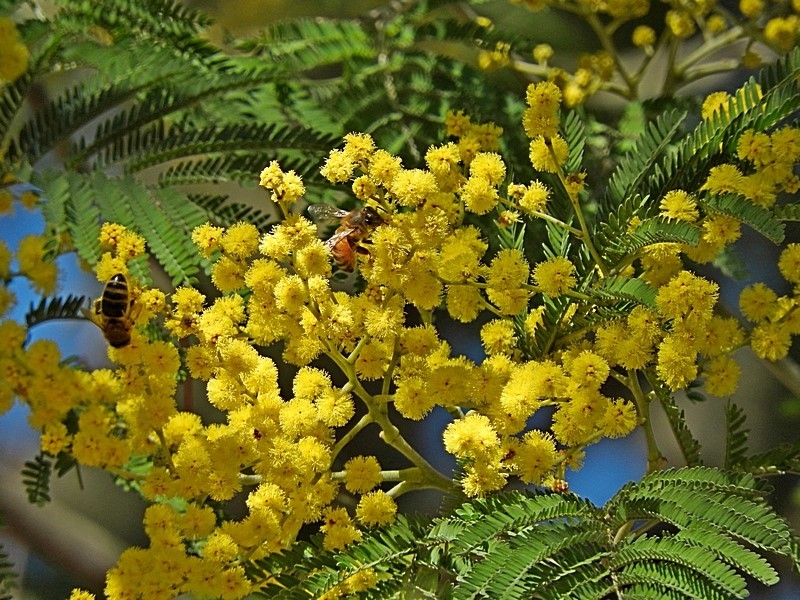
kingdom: Plantae
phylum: Tracheophyta
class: Magnoliopsida
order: Fabales
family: Fabaceae
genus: Acacia
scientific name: Acacia silvestris
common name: Bodalla wattle
